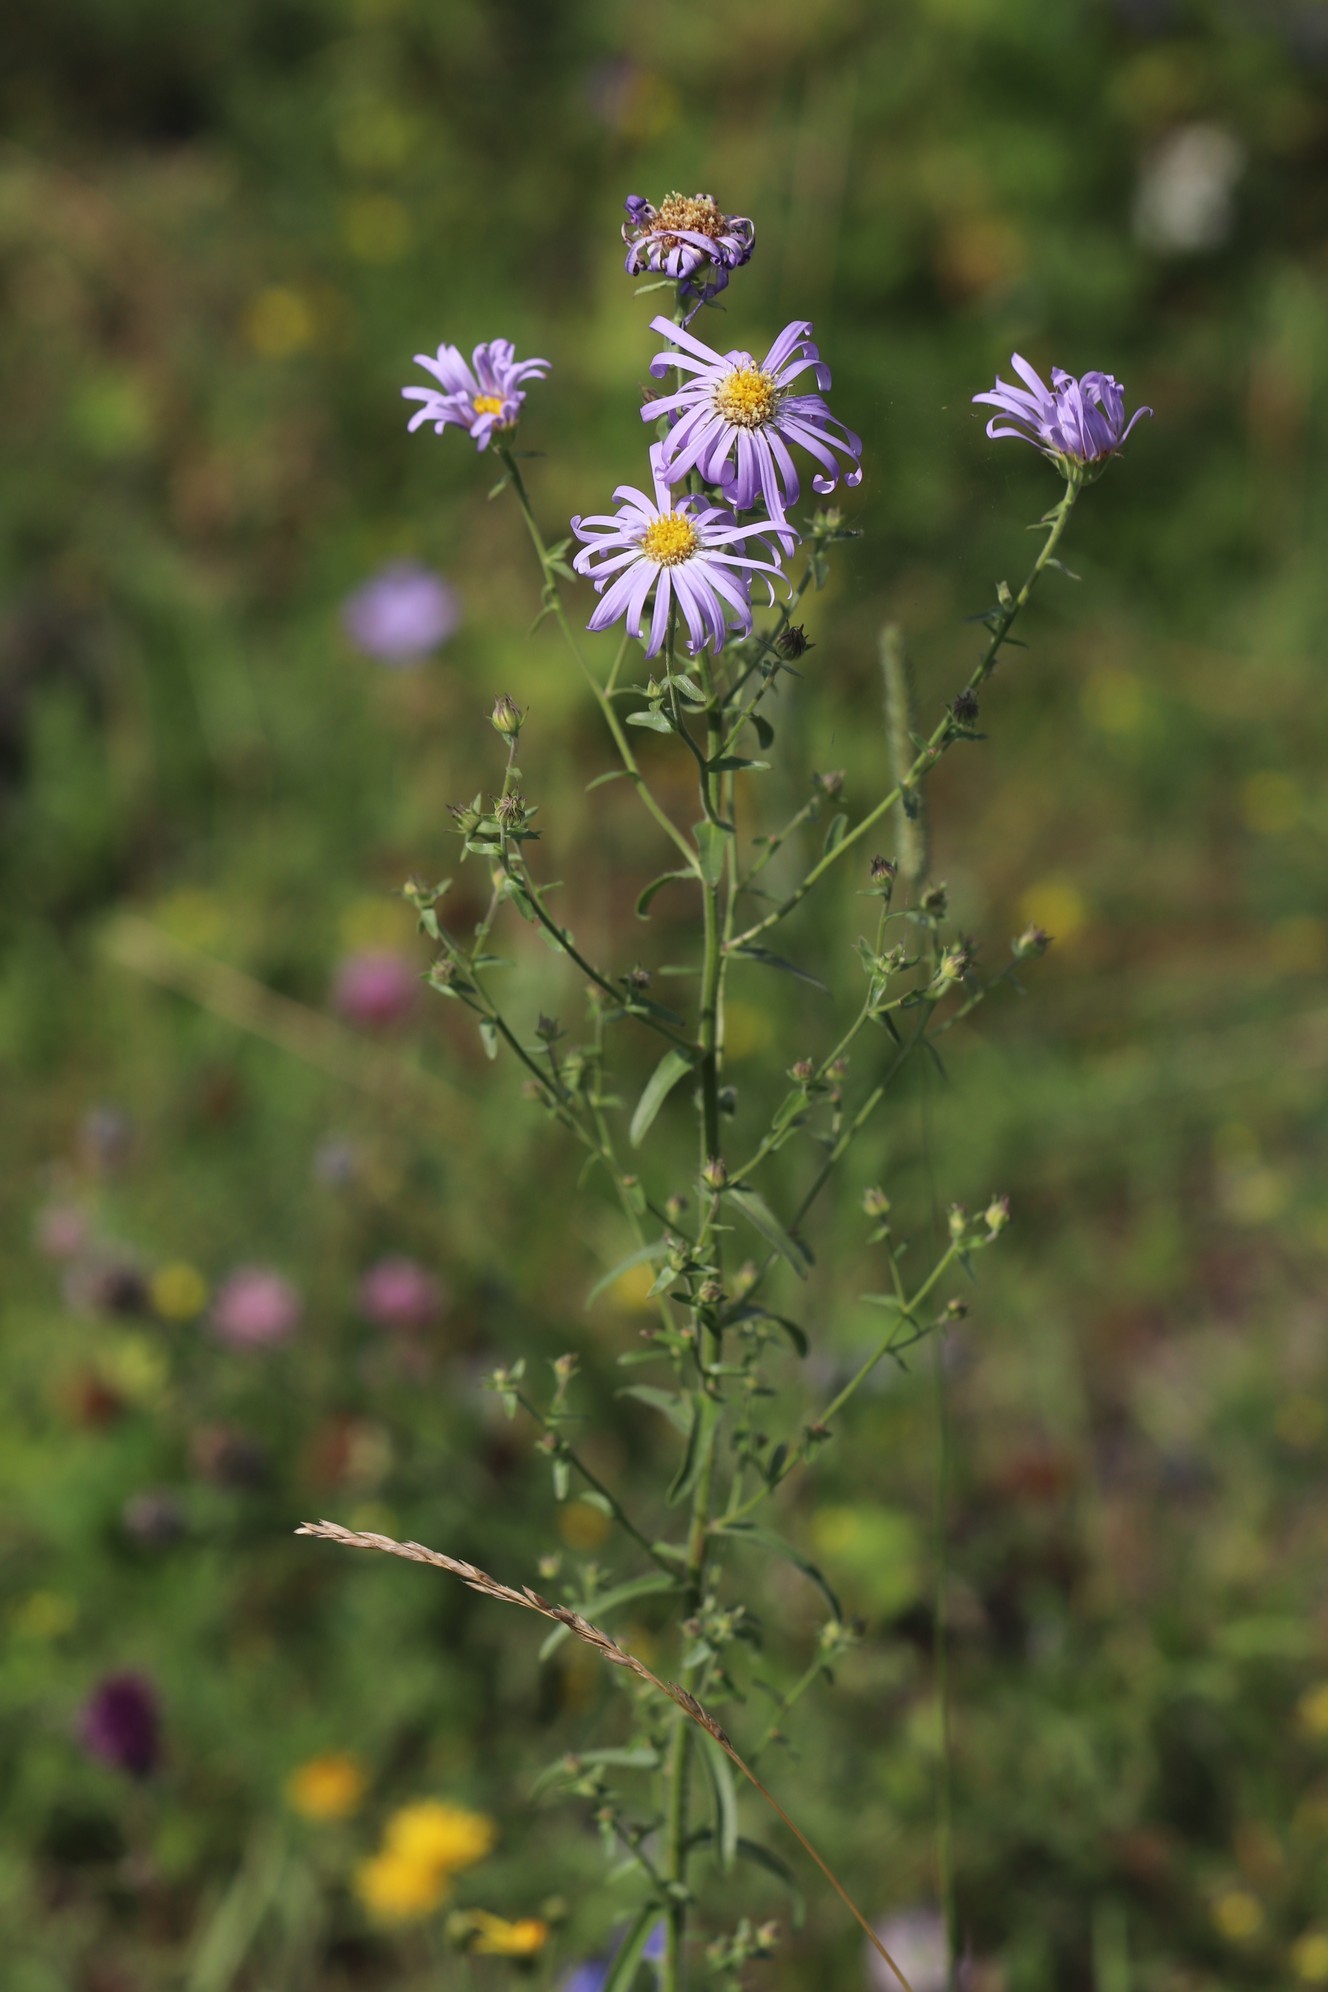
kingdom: Plantae
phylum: Tracheophyta
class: Magnoliopsida
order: Asterales
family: Asteraceae
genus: Heteropappus
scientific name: Heteropappus altaicus
